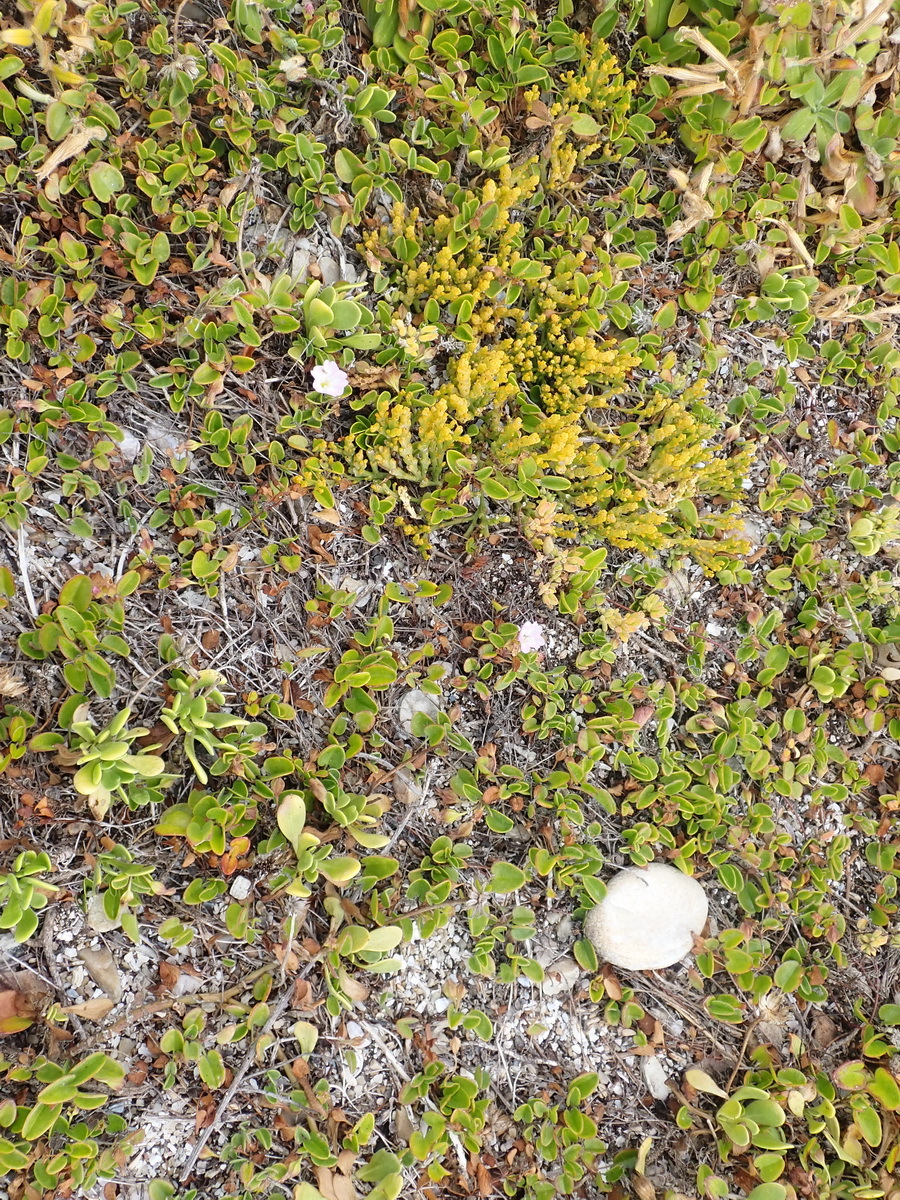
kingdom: Plantae
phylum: Tracheophyta
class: Magnoliopsida
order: Solanales
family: Convolvulaceae
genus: Falkia
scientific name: Falkia repens
